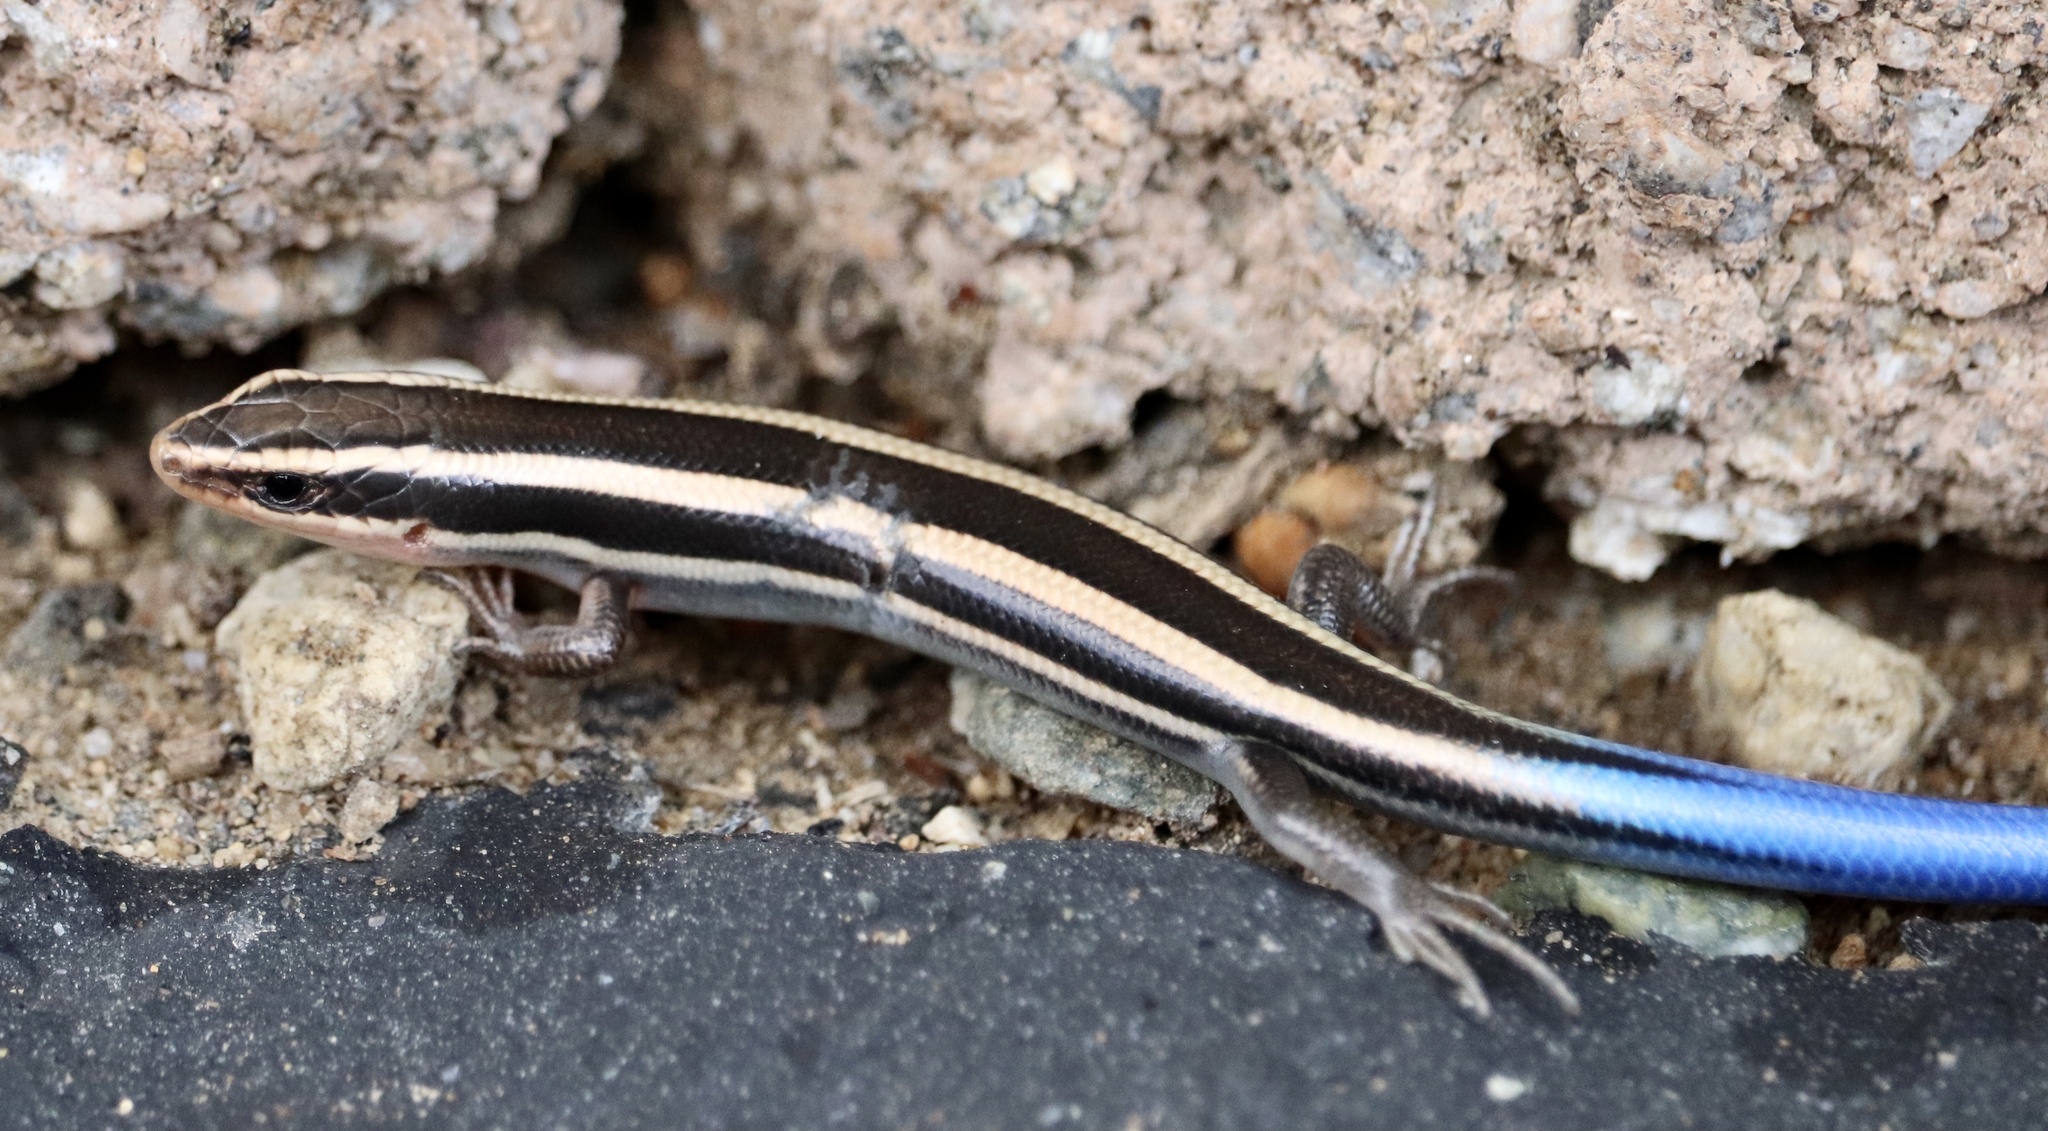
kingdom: Animalia
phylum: Chordata
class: Squamata
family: Scincidae
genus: Plestiodon
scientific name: Plestiodon skiltonianus
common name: Coronado island skink [interparietalis]
